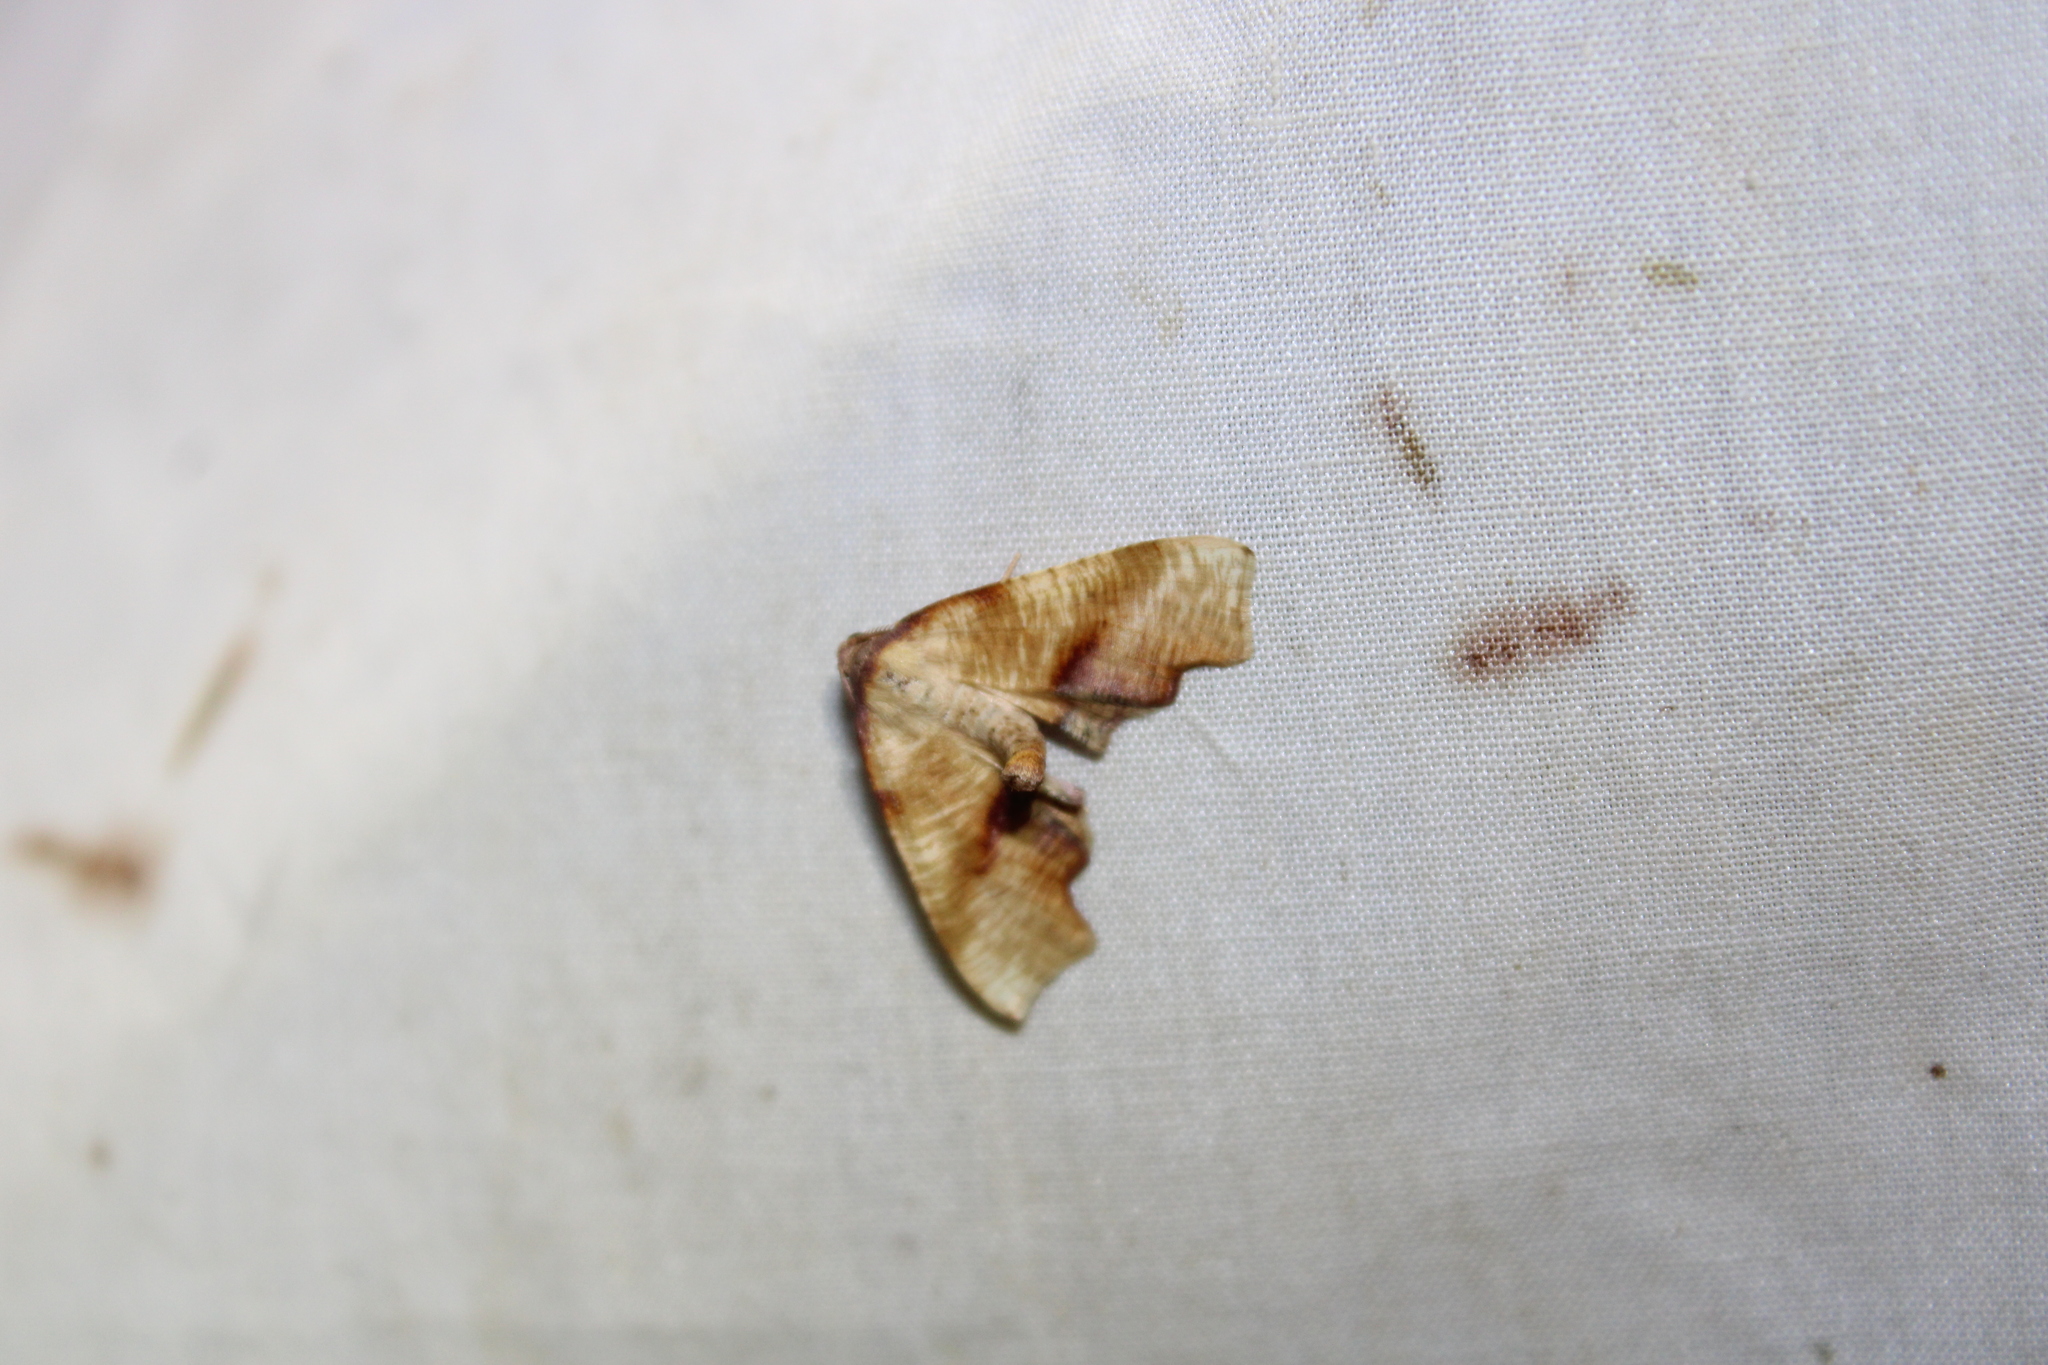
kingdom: Animalia
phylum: Arthropoda
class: Insecta
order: Lepidoptera
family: Geometridae
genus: Plagodis
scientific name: Plagodis fervidaria
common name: Fervid plagodis
